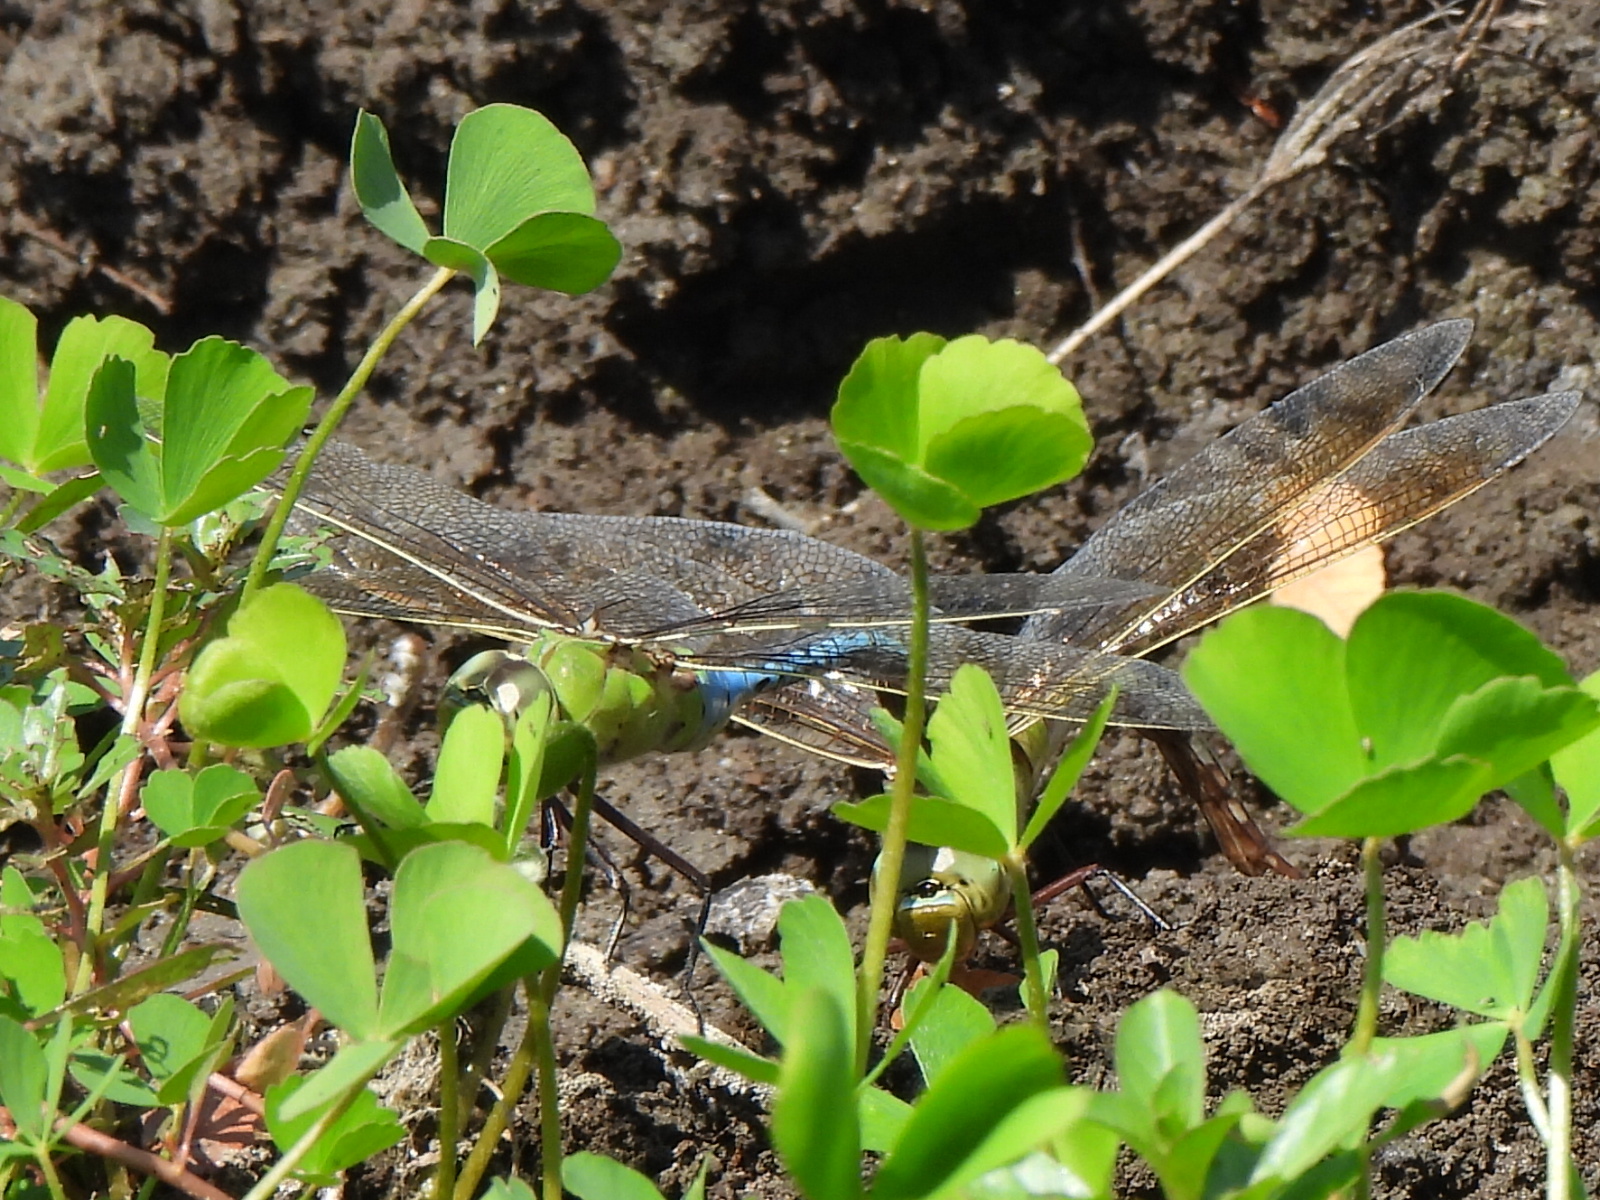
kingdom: Animalia
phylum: Arthropoda
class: Insecta
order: Odonata
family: Aeshnidae
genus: Anax
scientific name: Anax junius
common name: Common green darner
